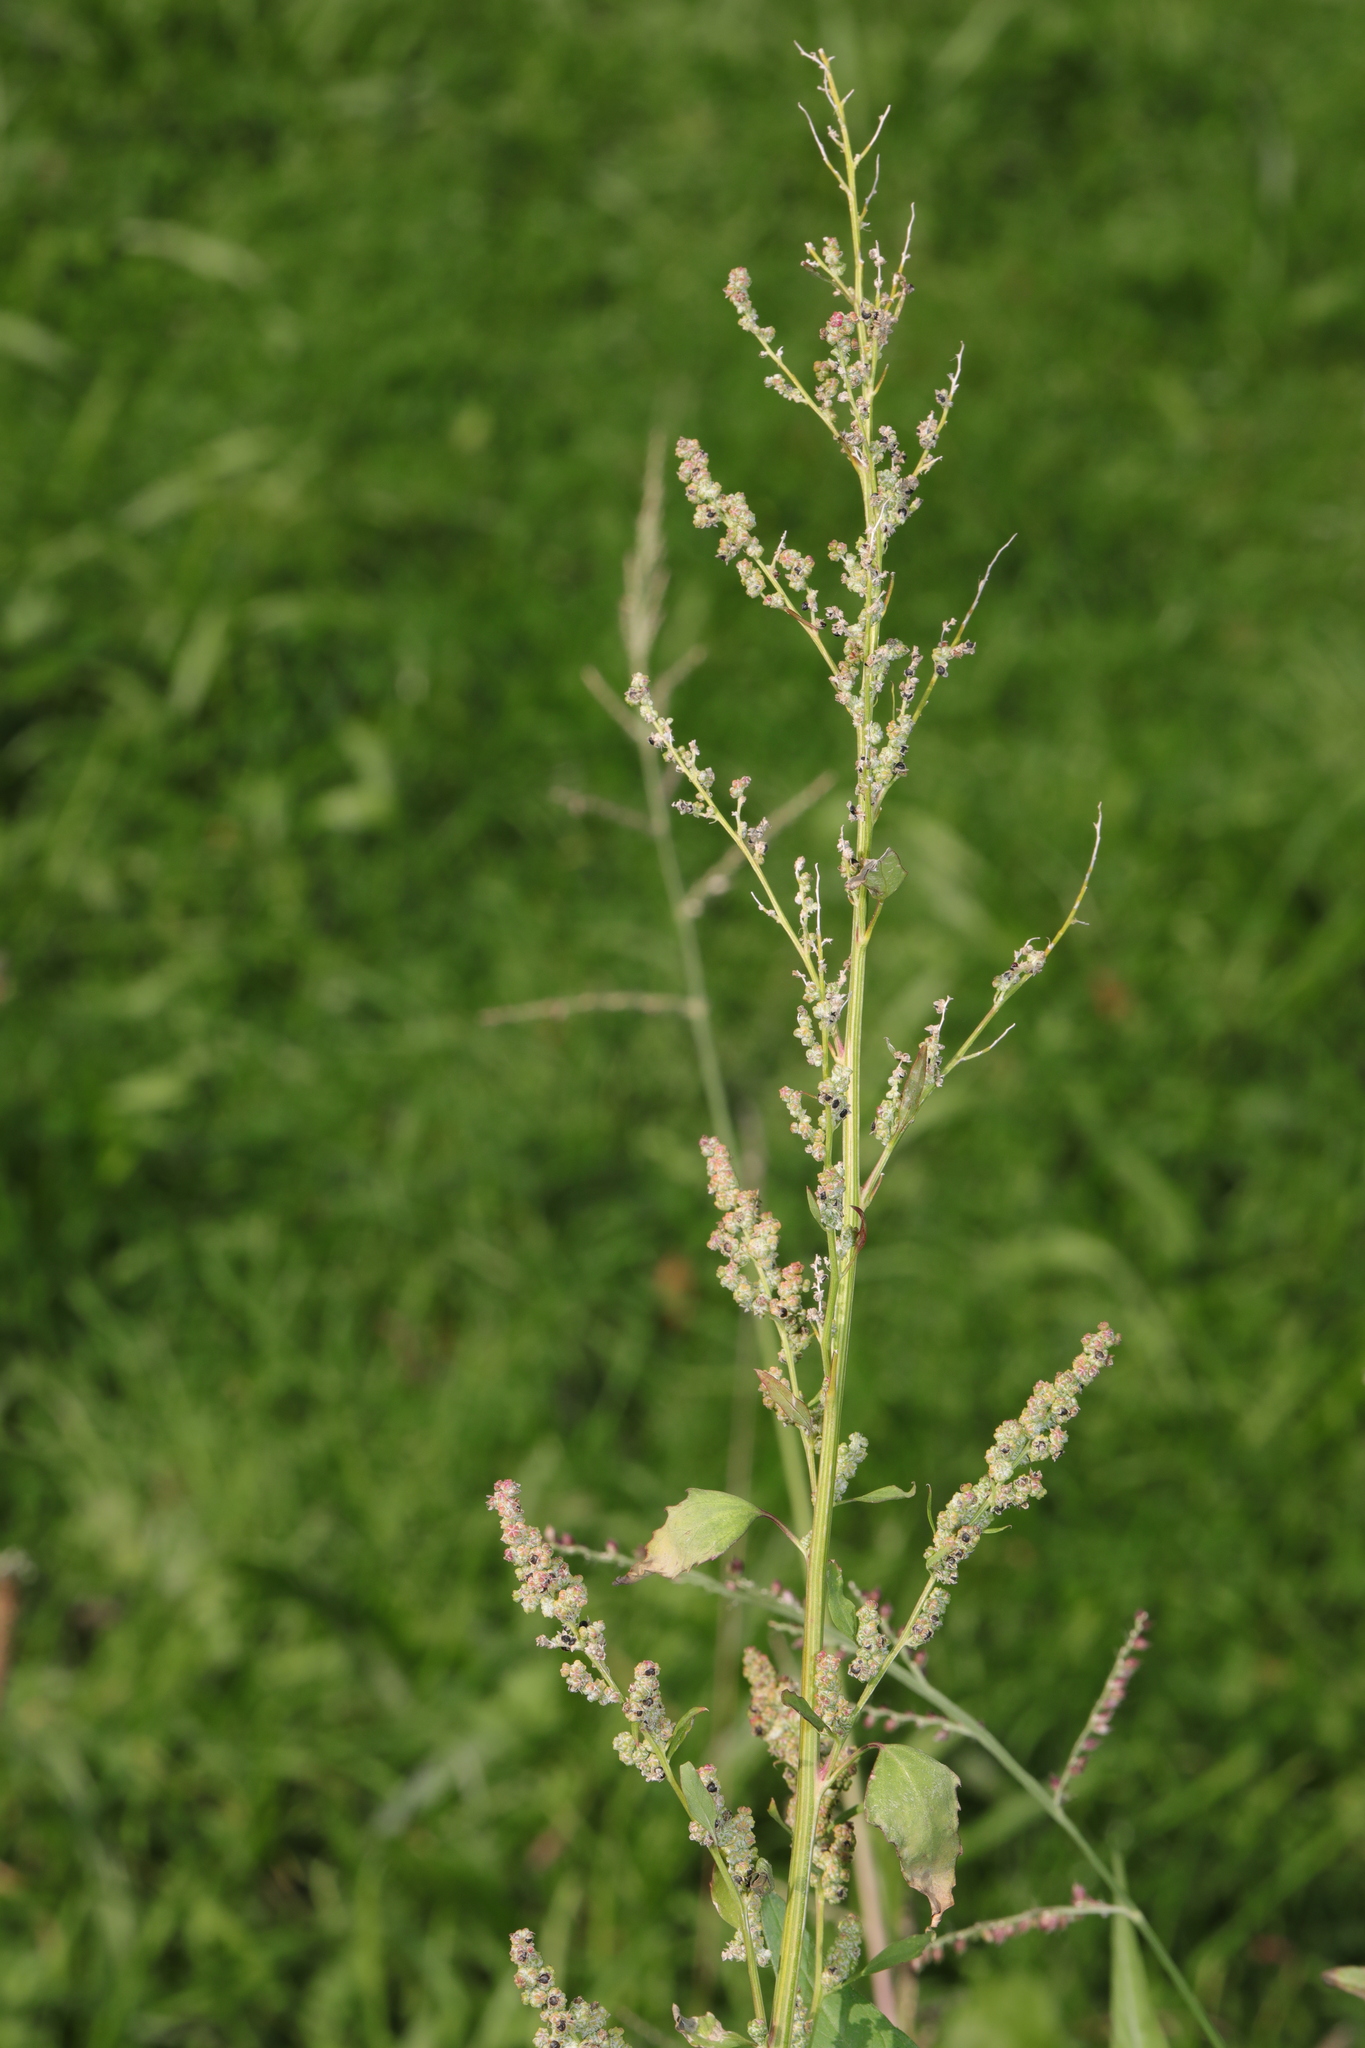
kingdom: Plantae
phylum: Tracheophyta
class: Magnoliopsida
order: Caryophyllales
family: Amaranthaceae
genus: Chenopodium
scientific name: Chenopodium album
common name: Fat-hen
